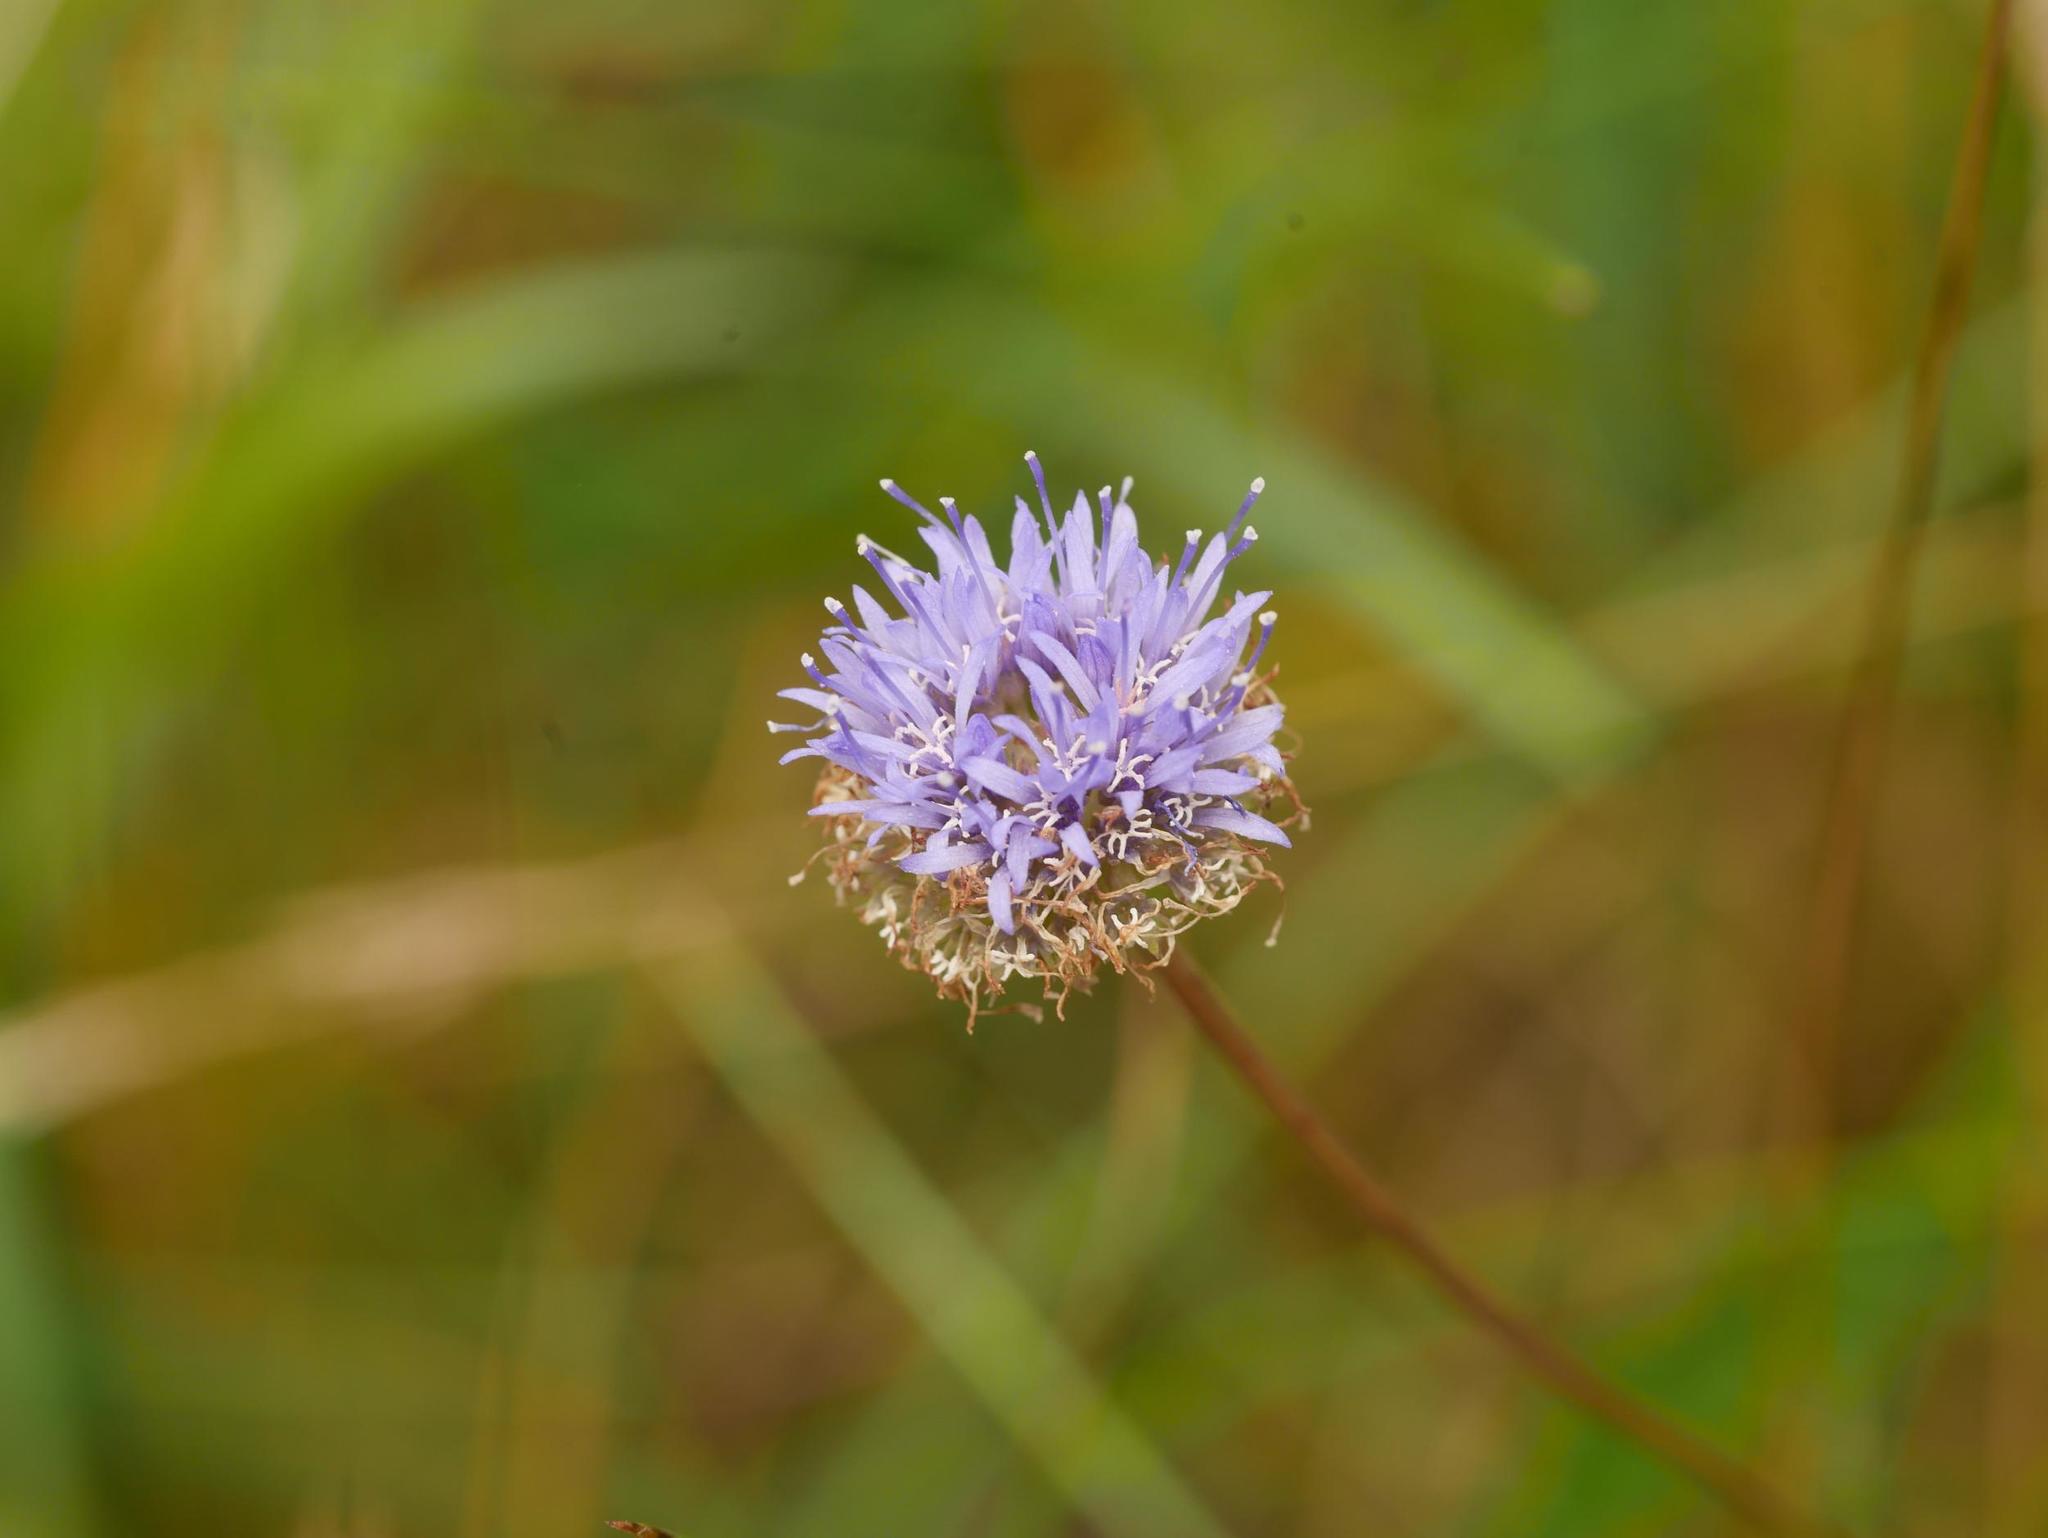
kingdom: Plantae
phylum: Tracheophyta
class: Magnoliopsida
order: Asterales
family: Campanulaceae
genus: Jasione
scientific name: Jasione montana
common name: Sheep's-bit
